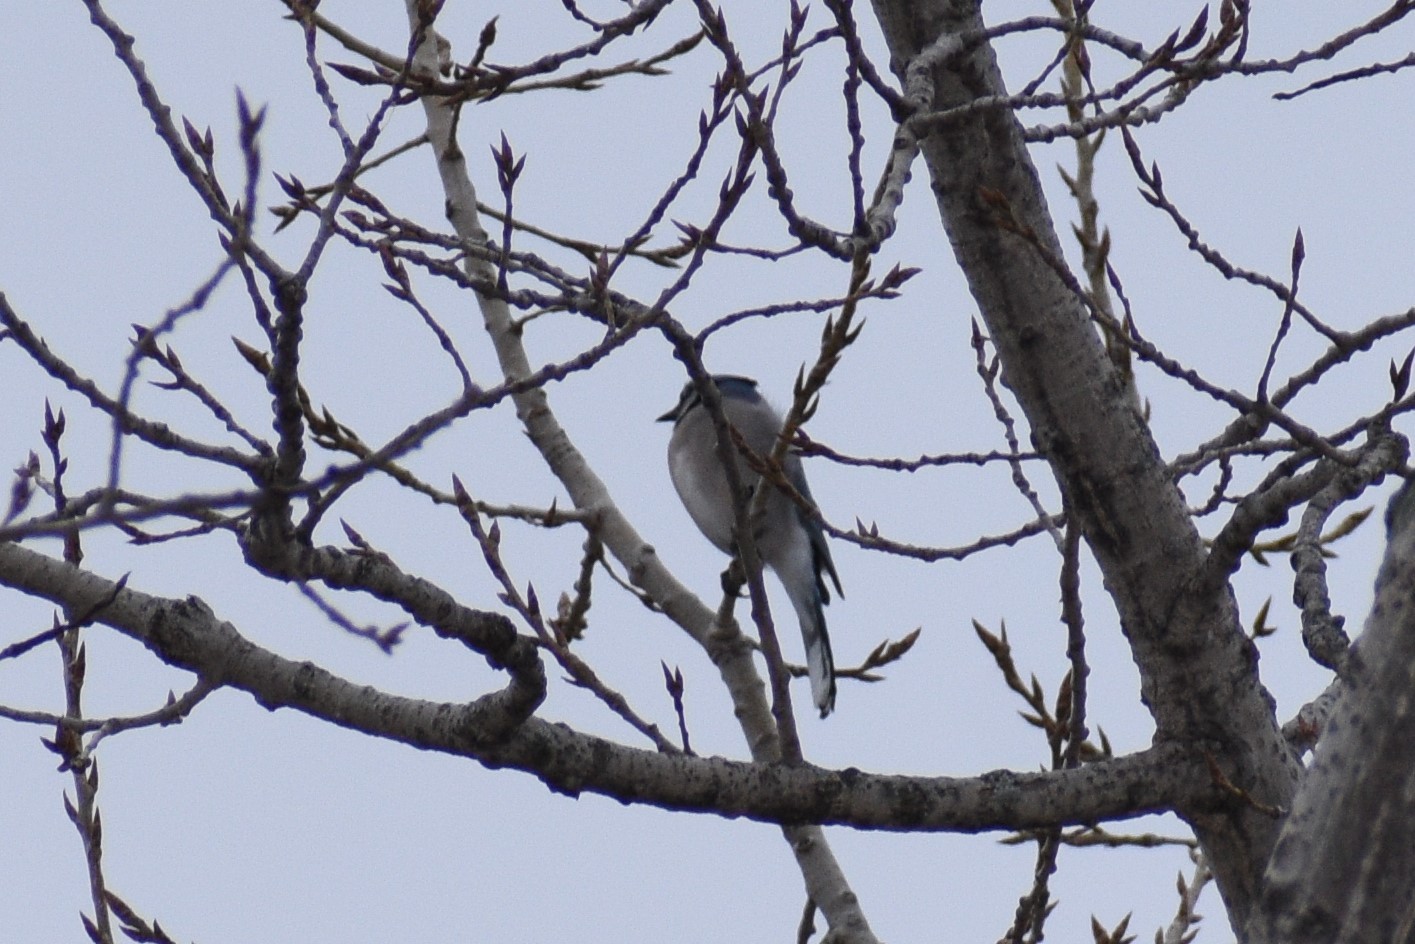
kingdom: Animalia
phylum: Chordata
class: Aves
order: Passeriformes
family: Corvidae
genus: Cyanocitta
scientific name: Cyanocitta cristata
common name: Blue jay
